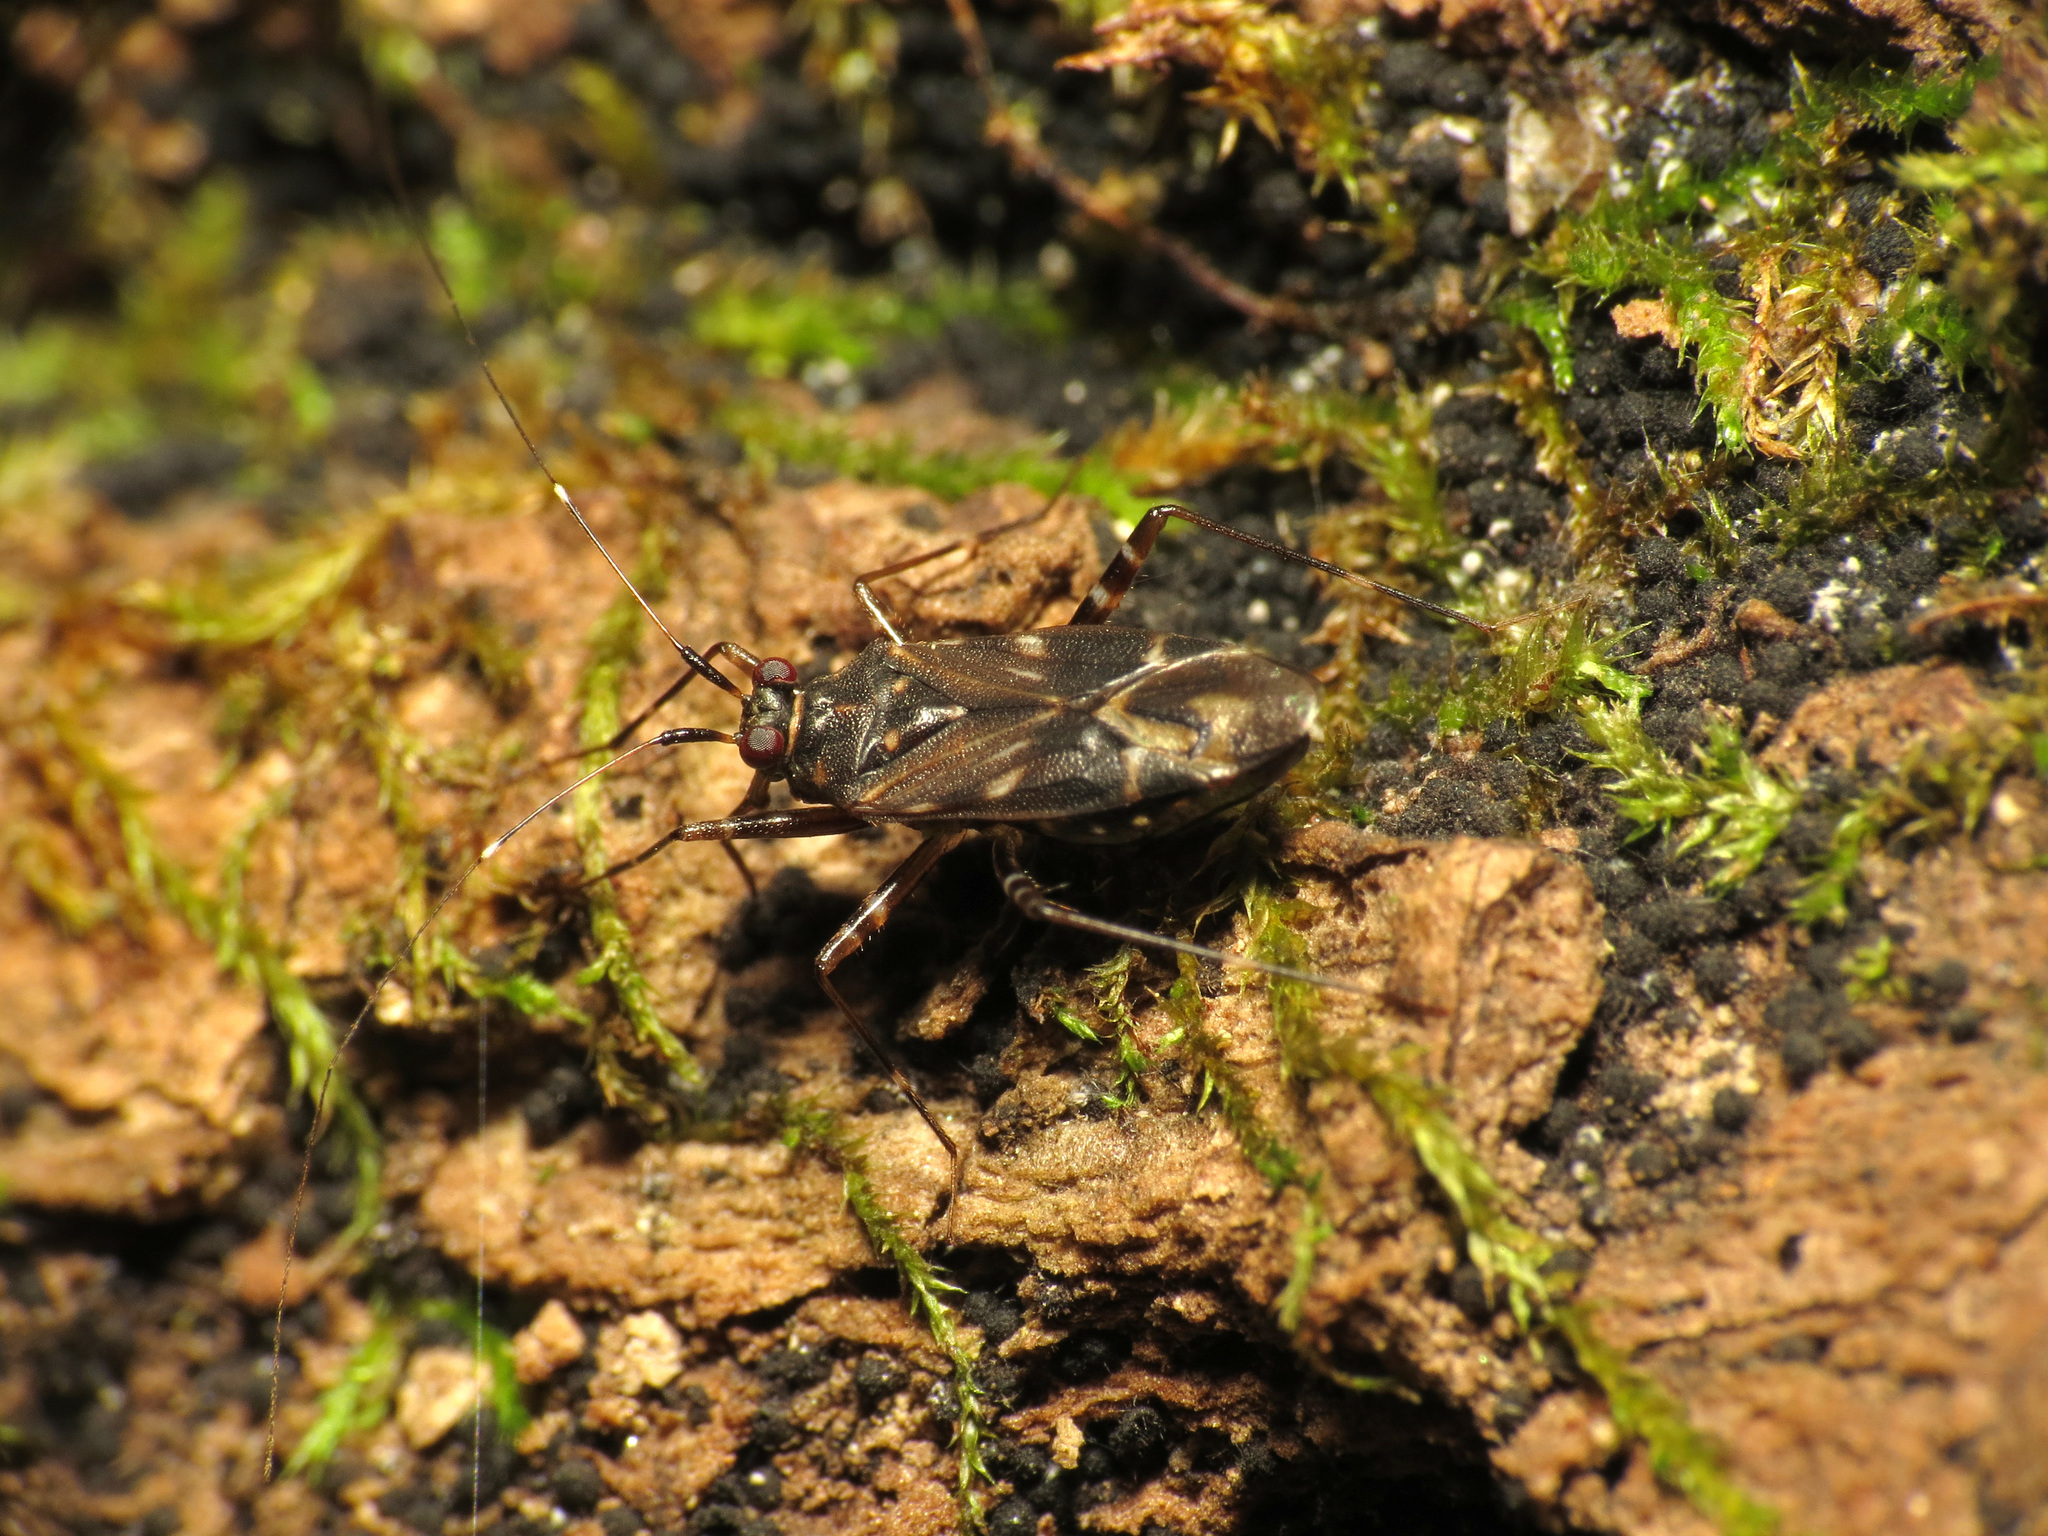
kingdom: Animalia
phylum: Arthropoda
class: Insecta
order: Hemiptera
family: Miridae
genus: Cylapus
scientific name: Cylapus tenuicornis
